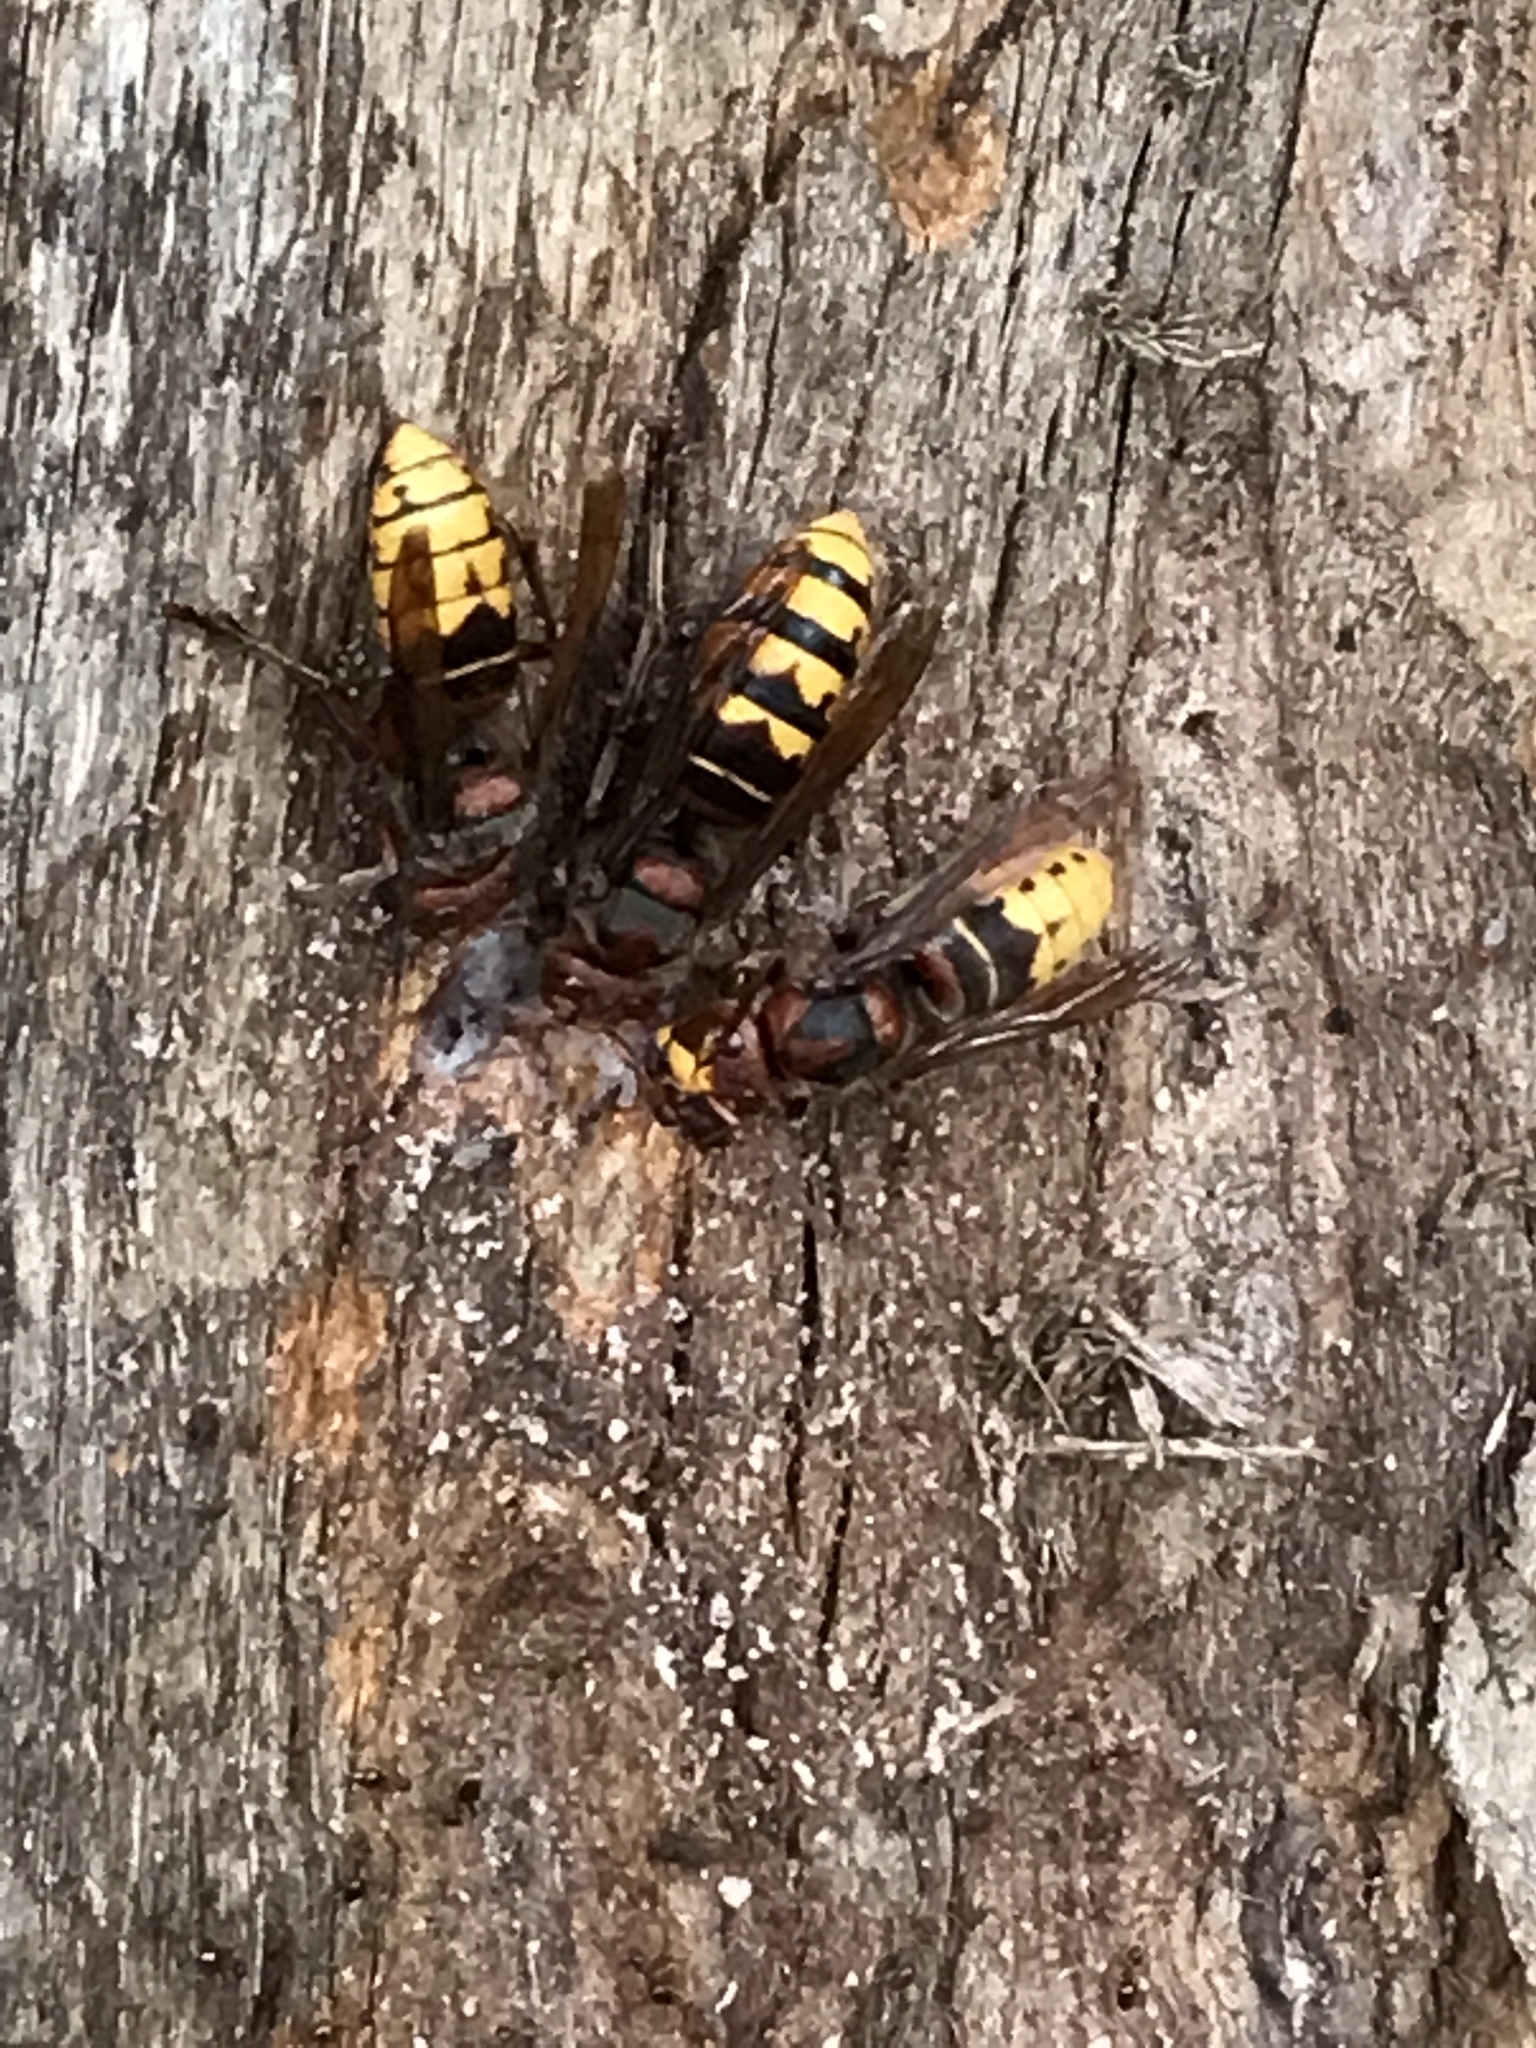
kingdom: Animalia
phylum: Arthropoda
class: Insecta
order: Hymenoptera
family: Vespidae
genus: Vespa
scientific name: Vespa crabro
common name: Hornet
